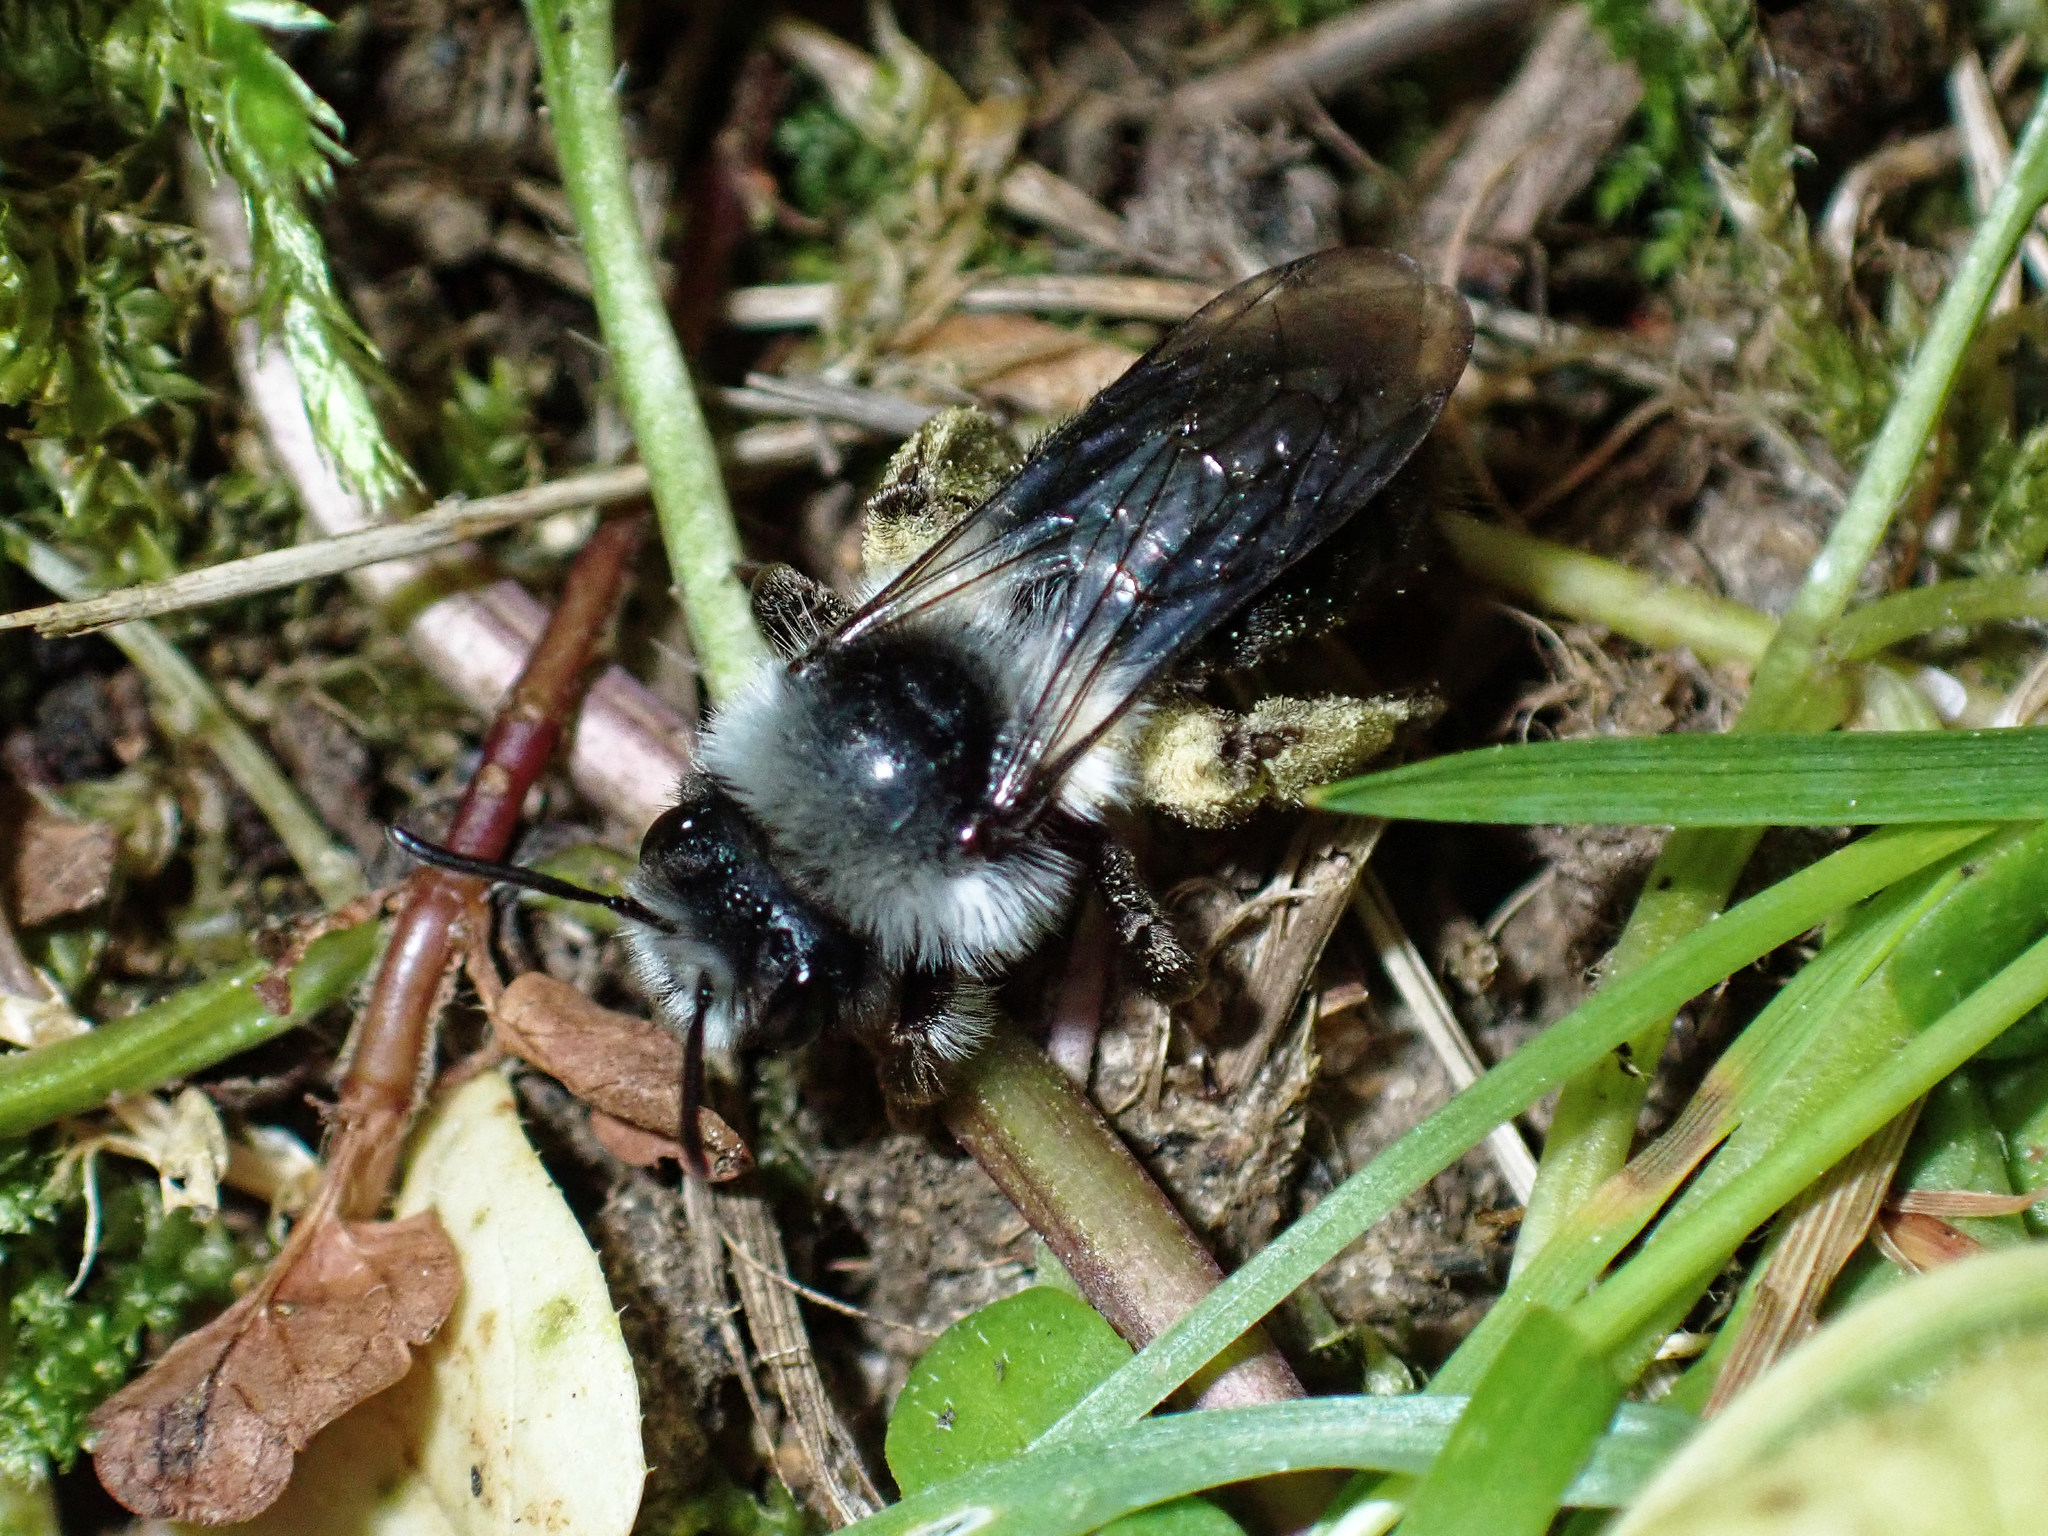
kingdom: Animalia
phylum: Arthropoda
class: Insecta
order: Hymenoptera
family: Andrenidae
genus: Andrena
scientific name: Andrena cineraria
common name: Ashy mining bee
